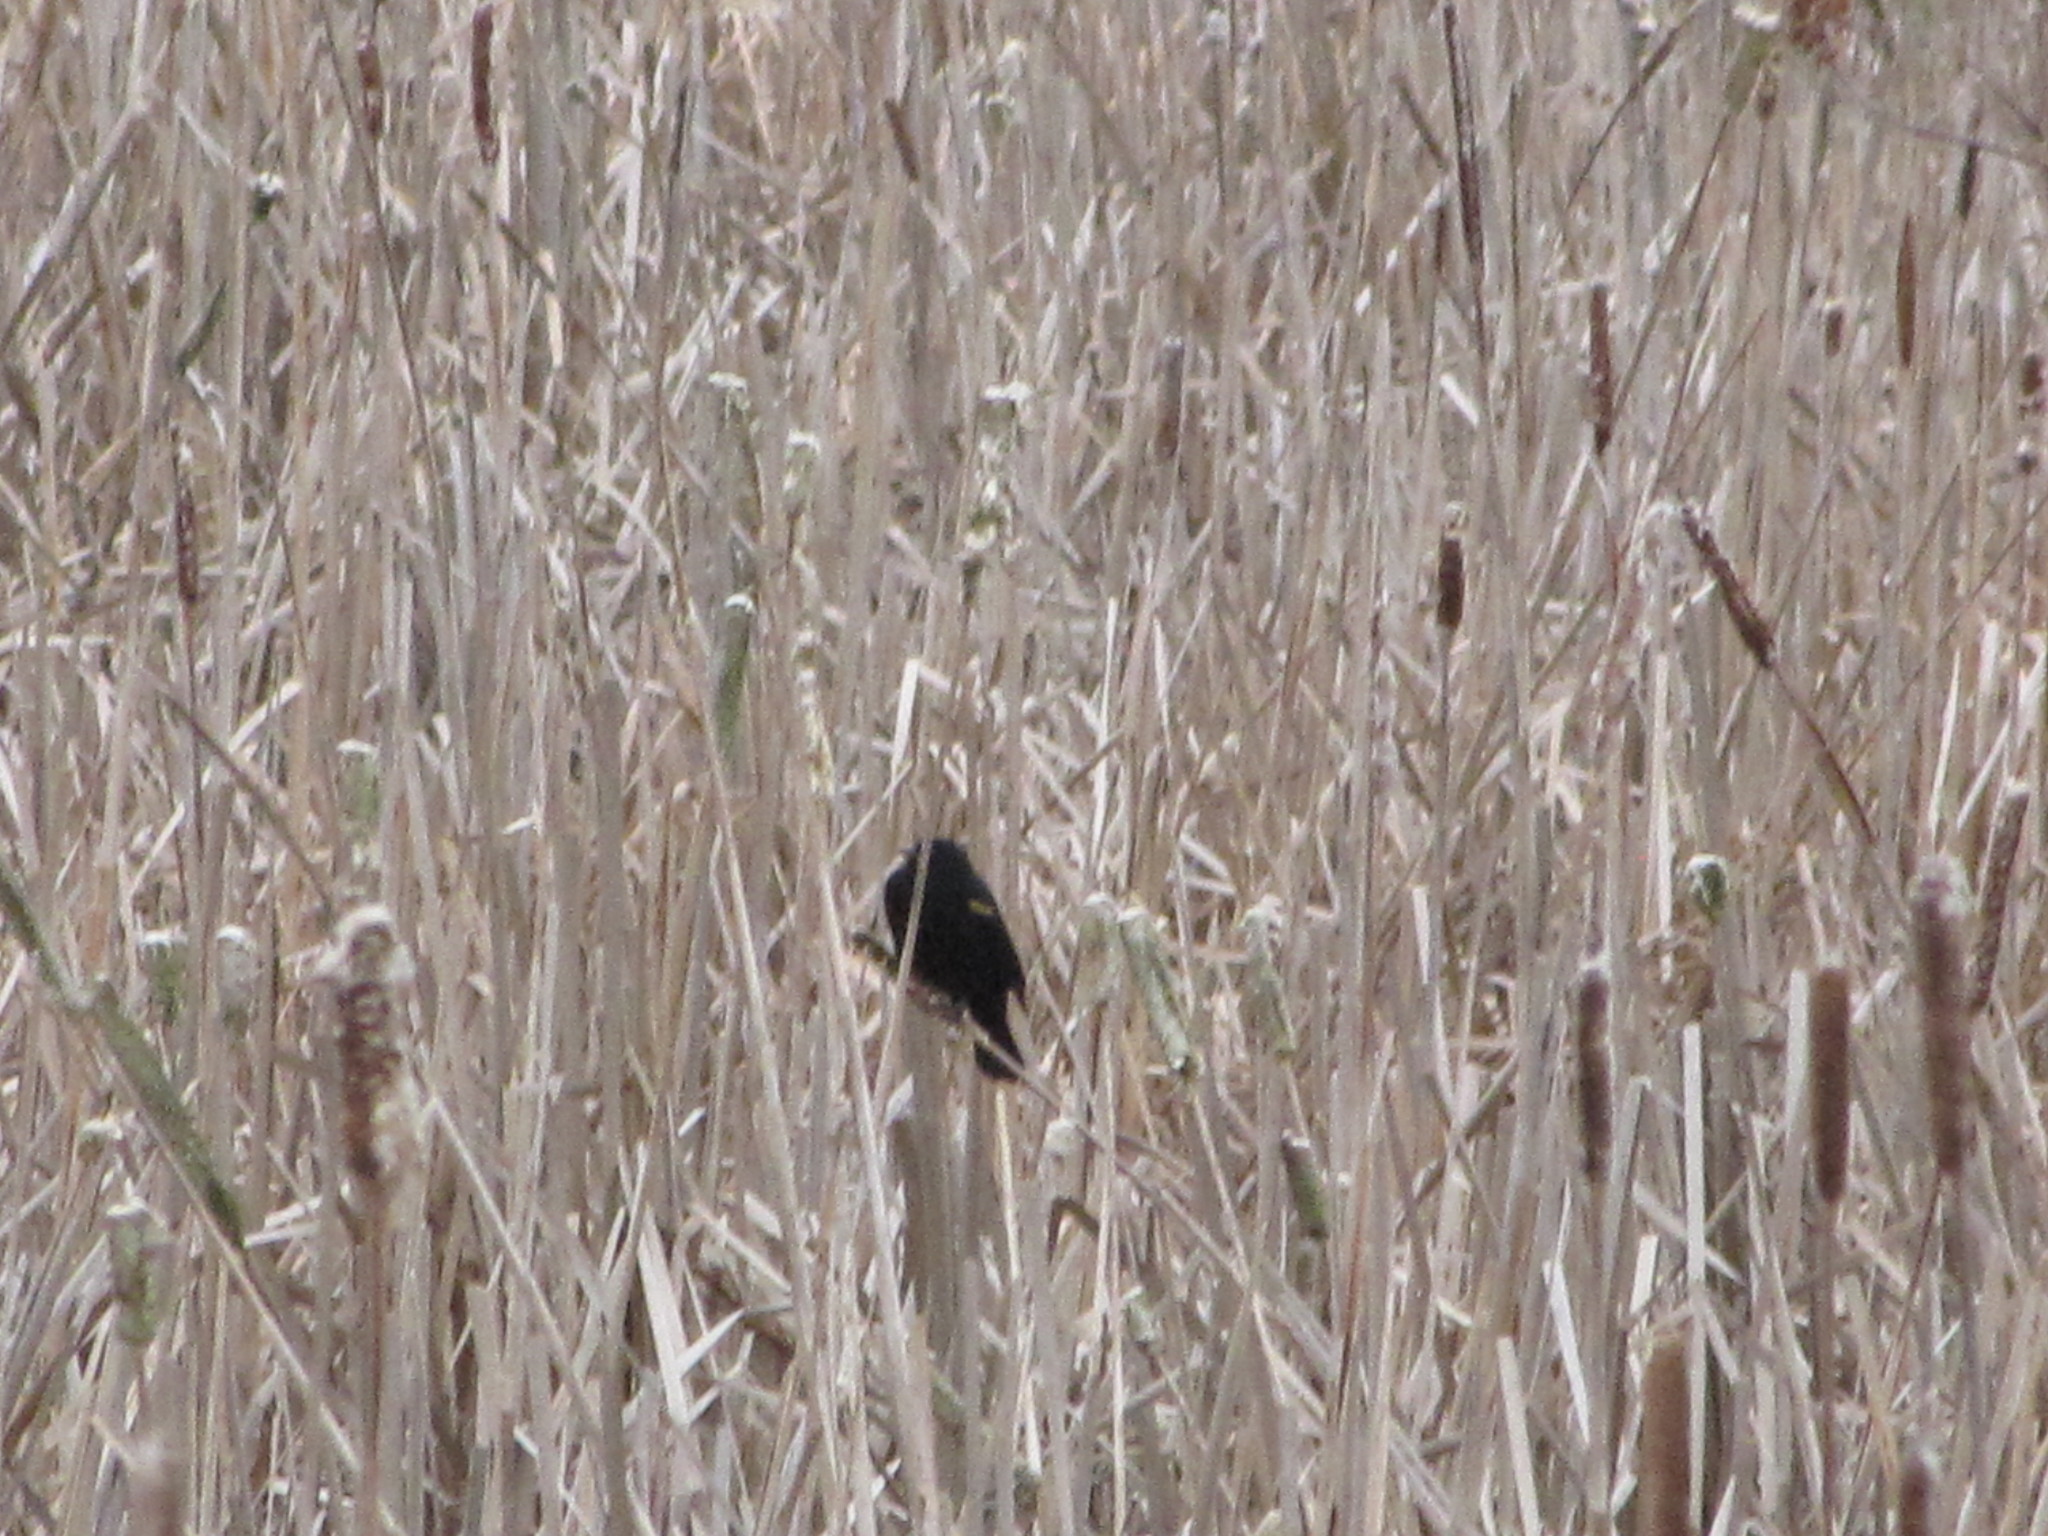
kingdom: Animalia
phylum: Chordata
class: Aves
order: Passeriformes
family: Icteridae
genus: Agelaius
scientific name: Agelaius phoeniceus
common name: Red-winged blackbird
